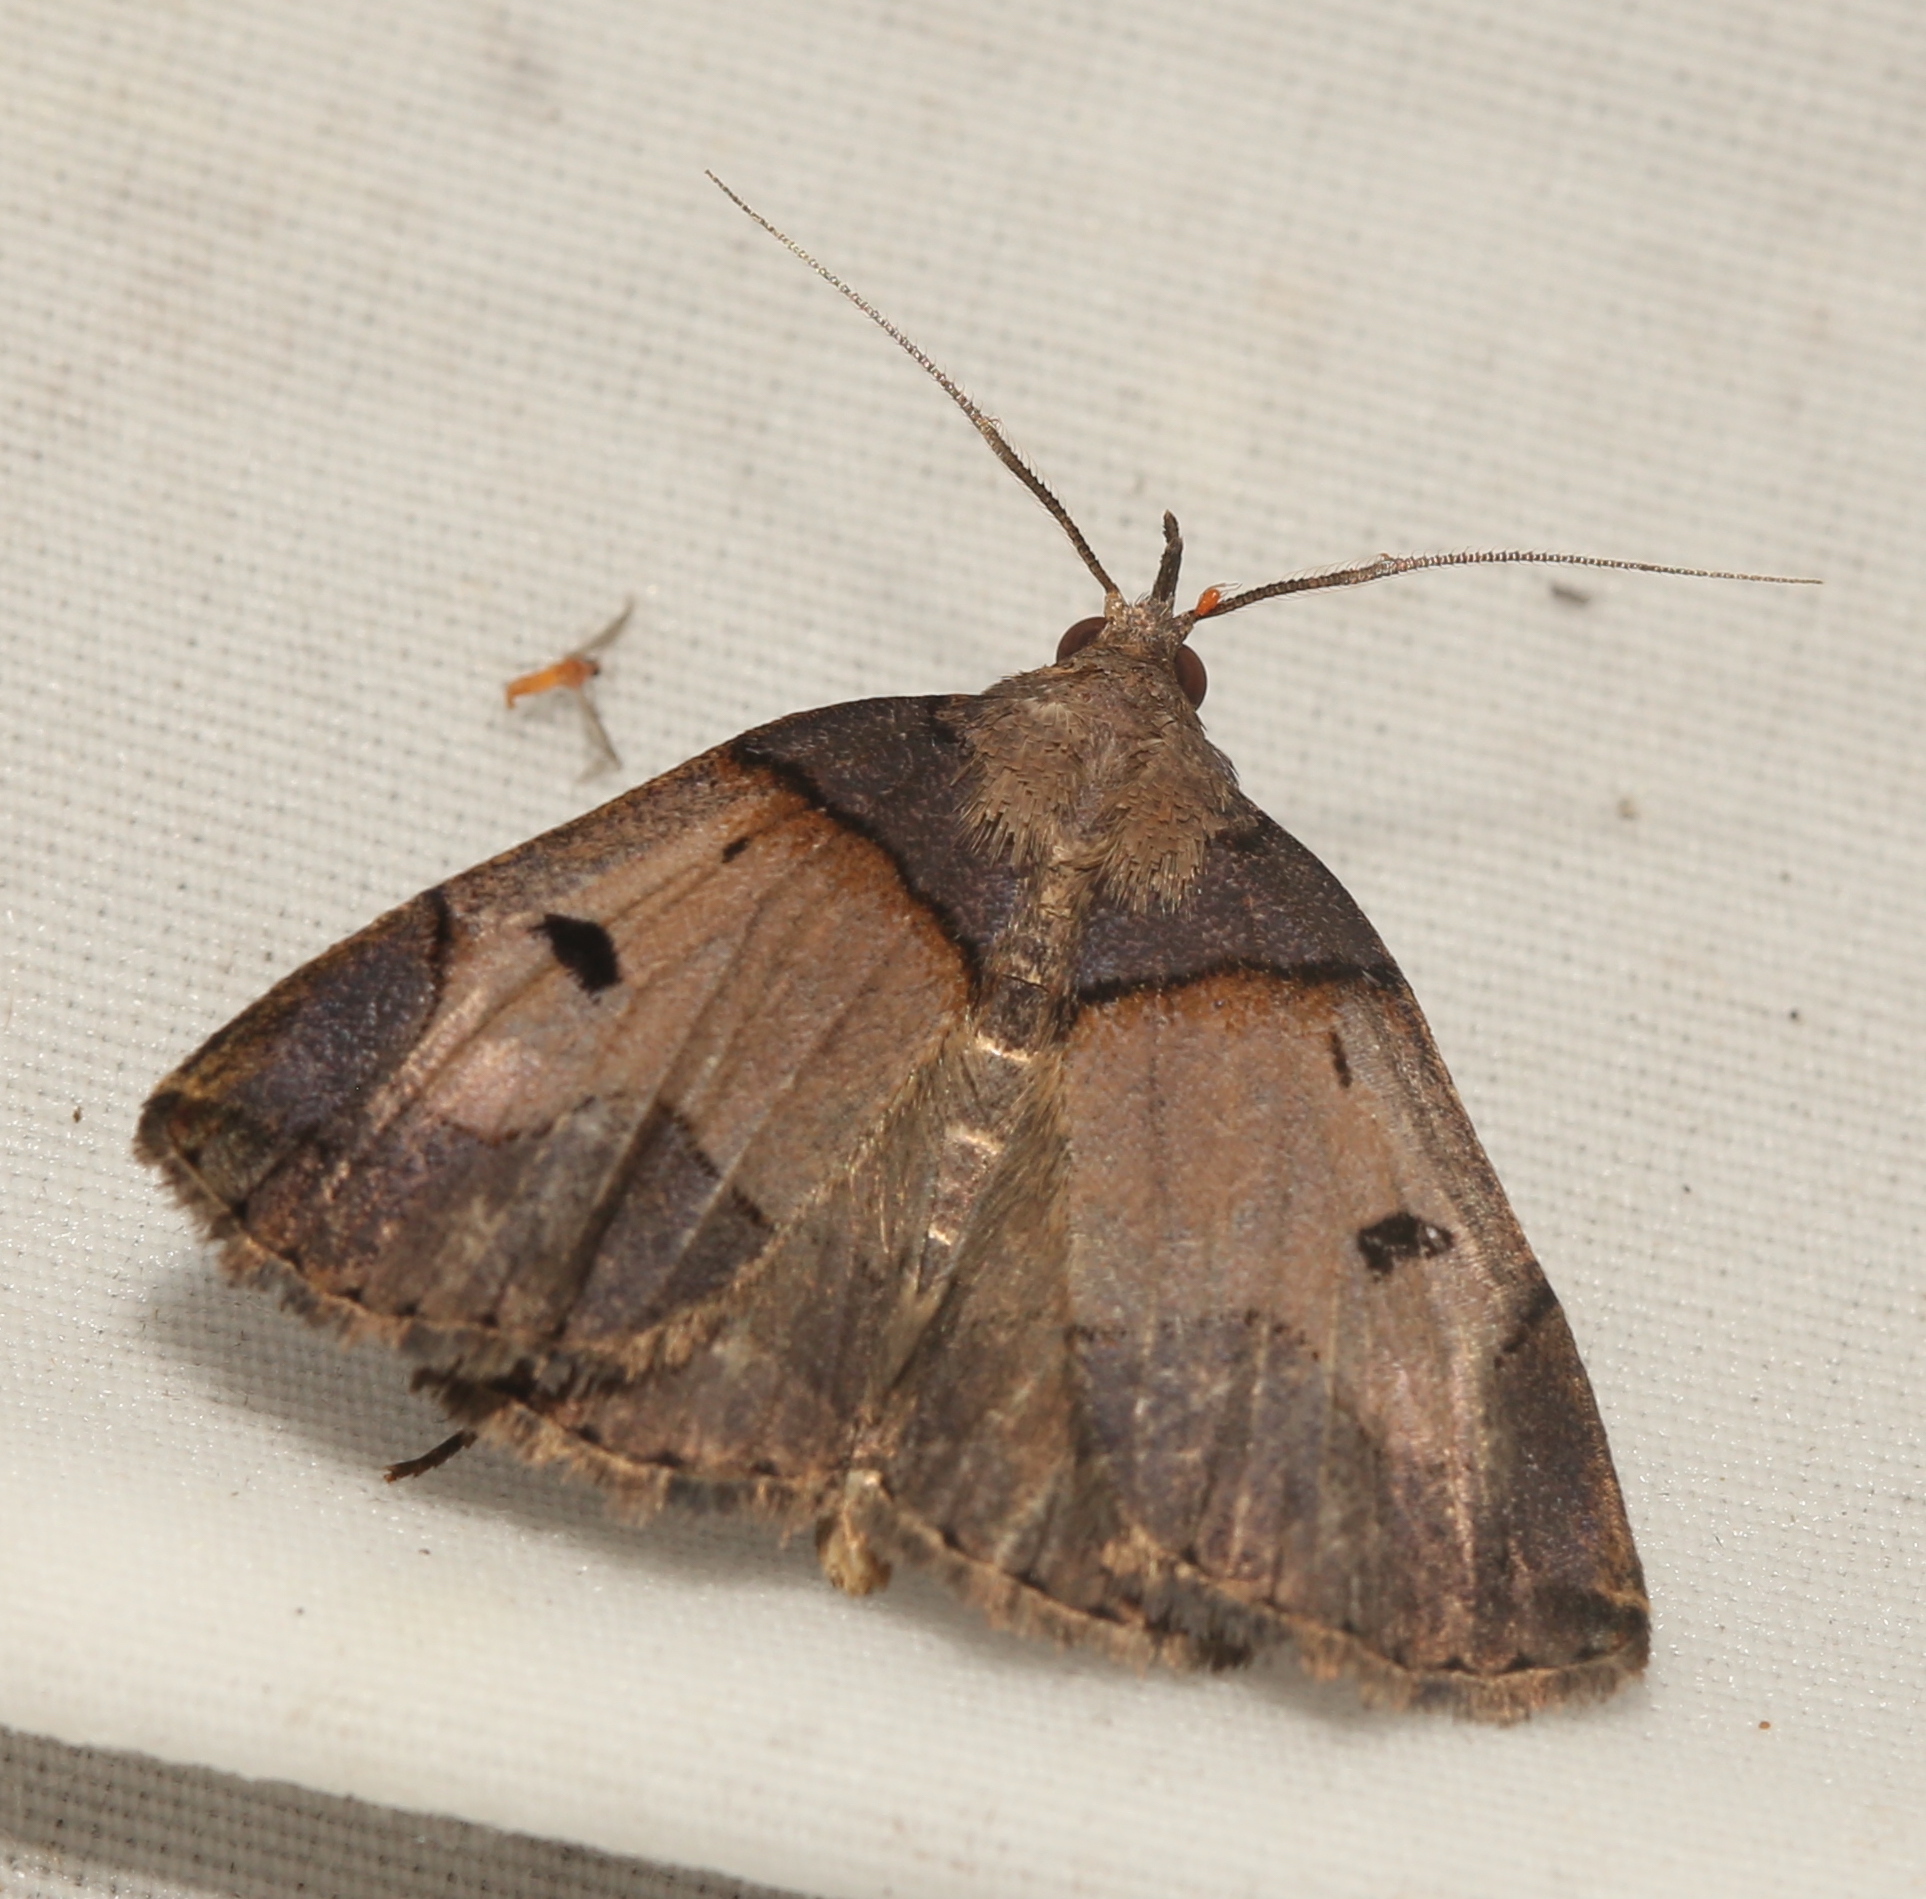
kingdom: Animalia
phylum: Arthropoda
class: Insecta
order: Lepidoptera
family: Erebidae
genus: Zanclognatha
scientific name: Zanclognatha laevigata
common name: Variable fan-foot
